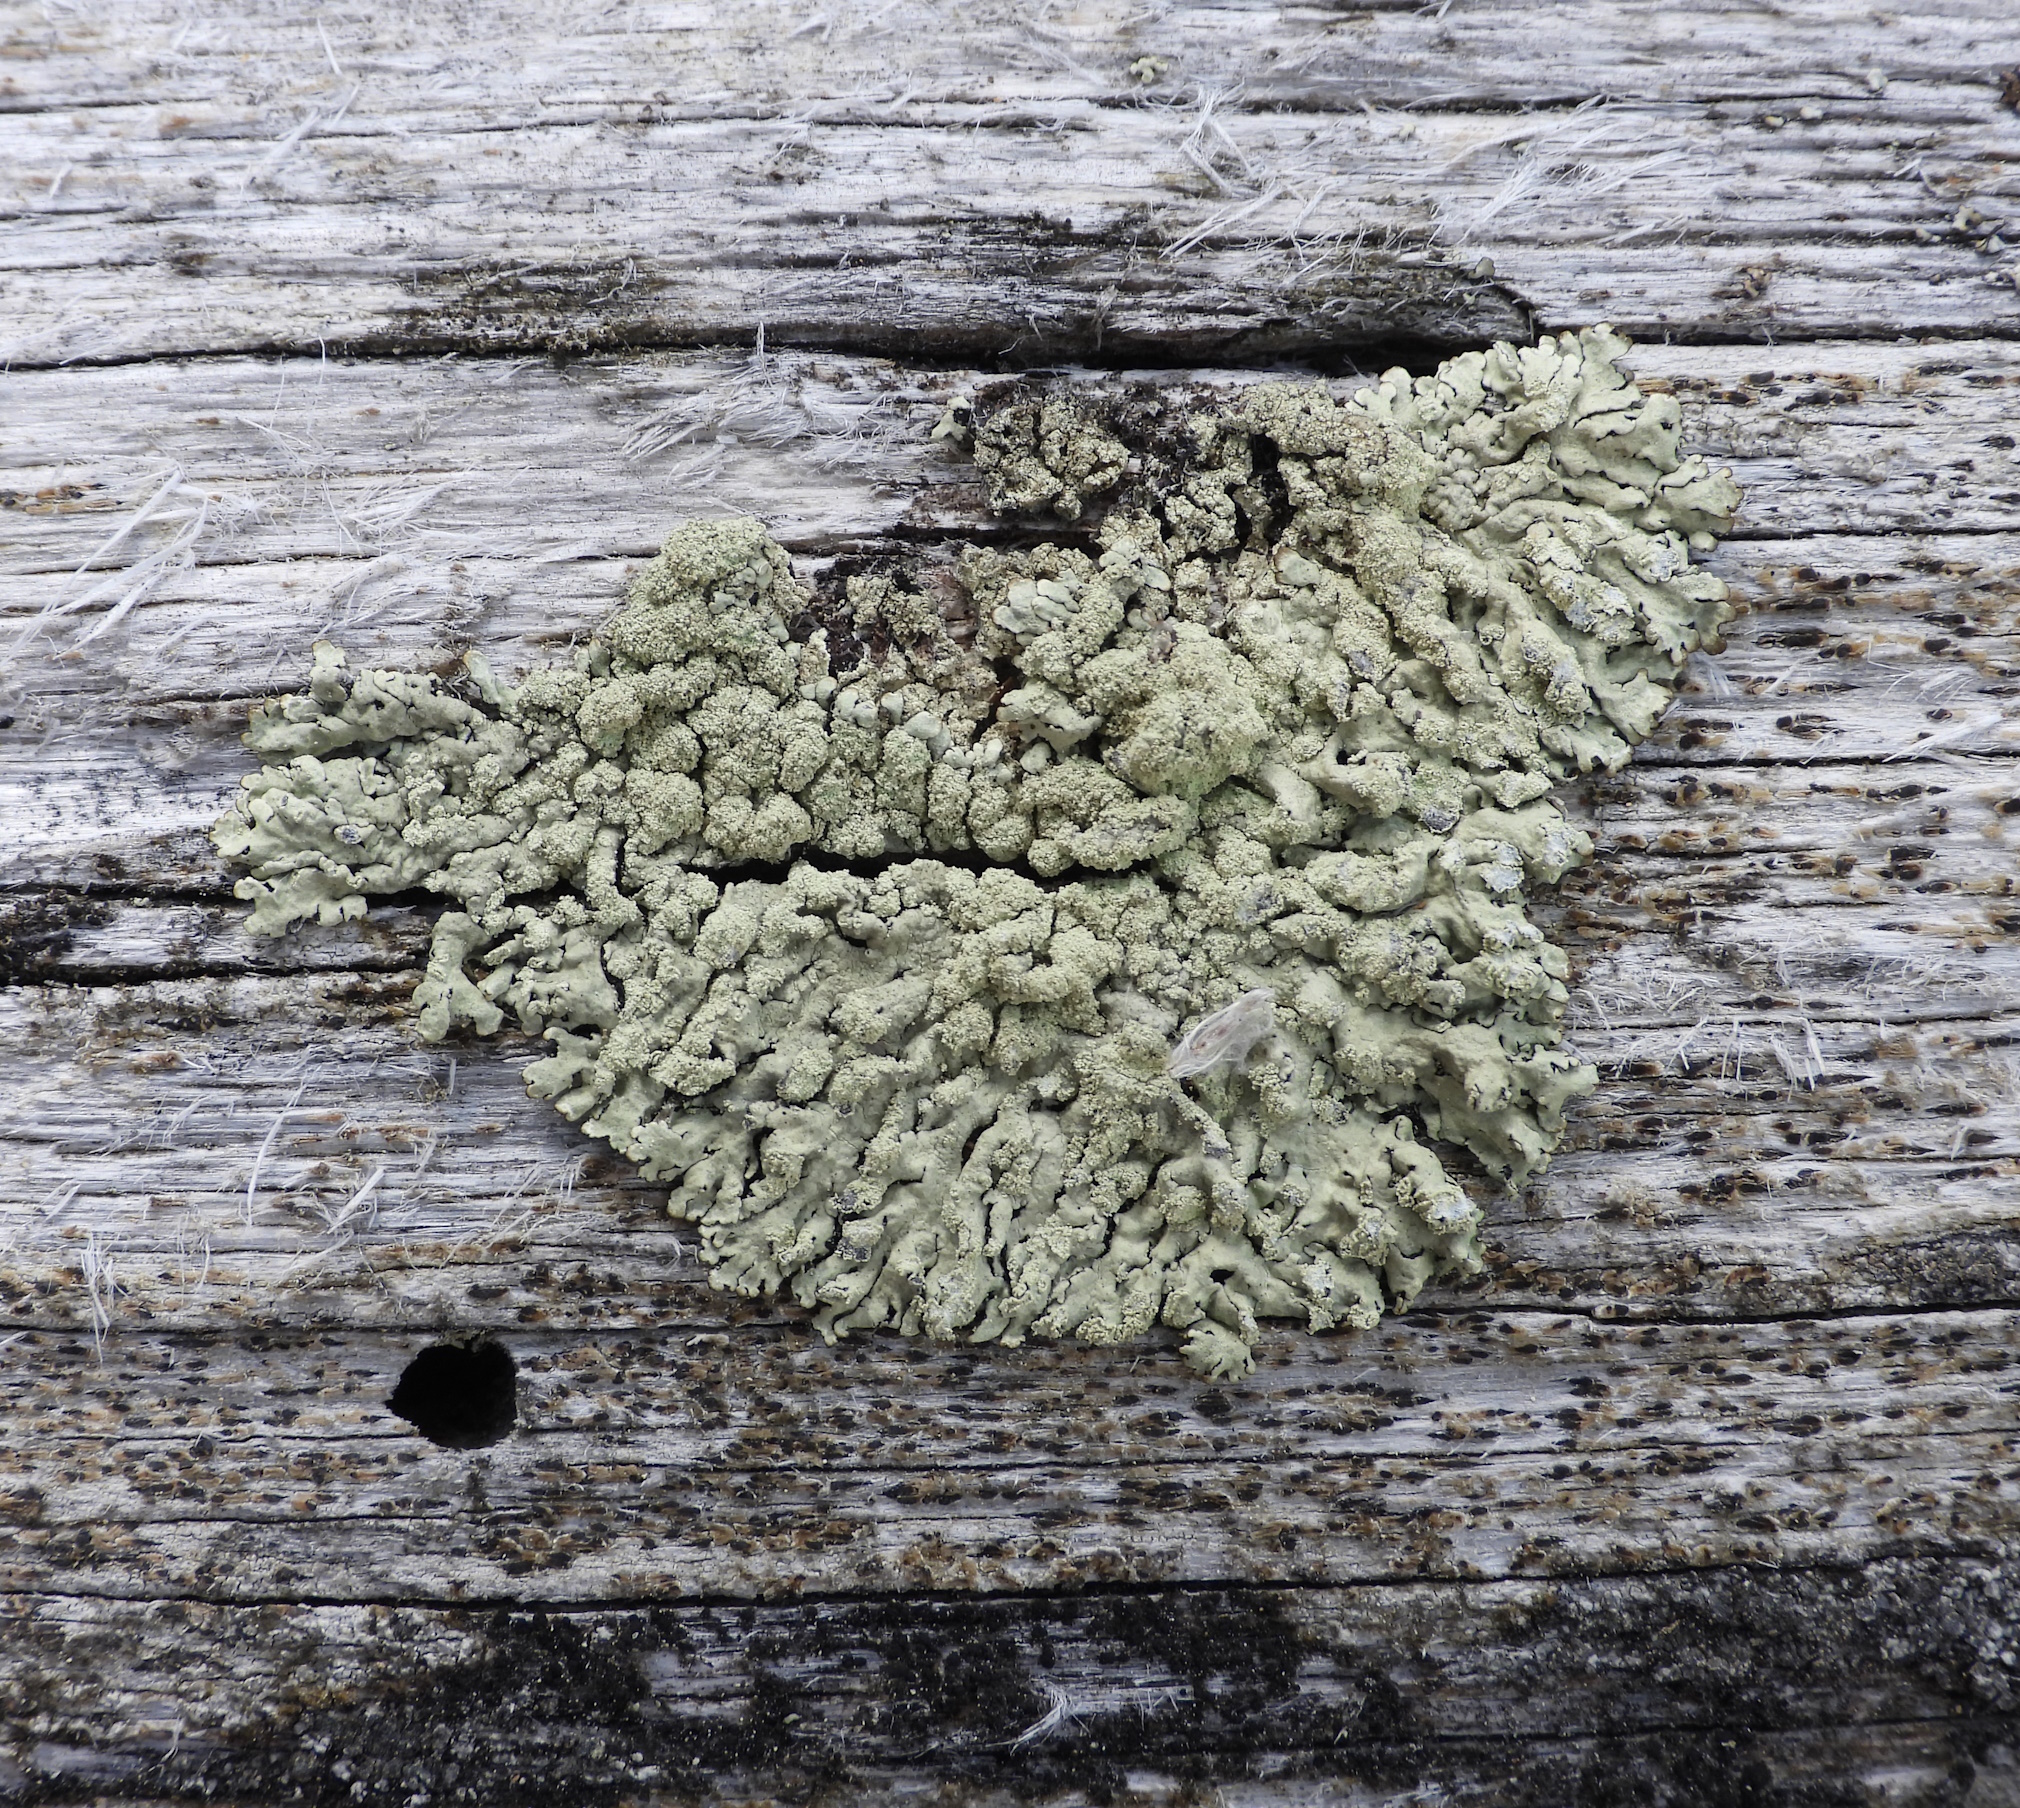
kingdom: Fungi
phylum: Ascomycota
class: Lecanoromycetes
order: Lecanorales
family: Parmeliaceae
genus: Parmeliopsis
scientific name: Parmeliopsis ambigua
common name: Green starburst lichen
